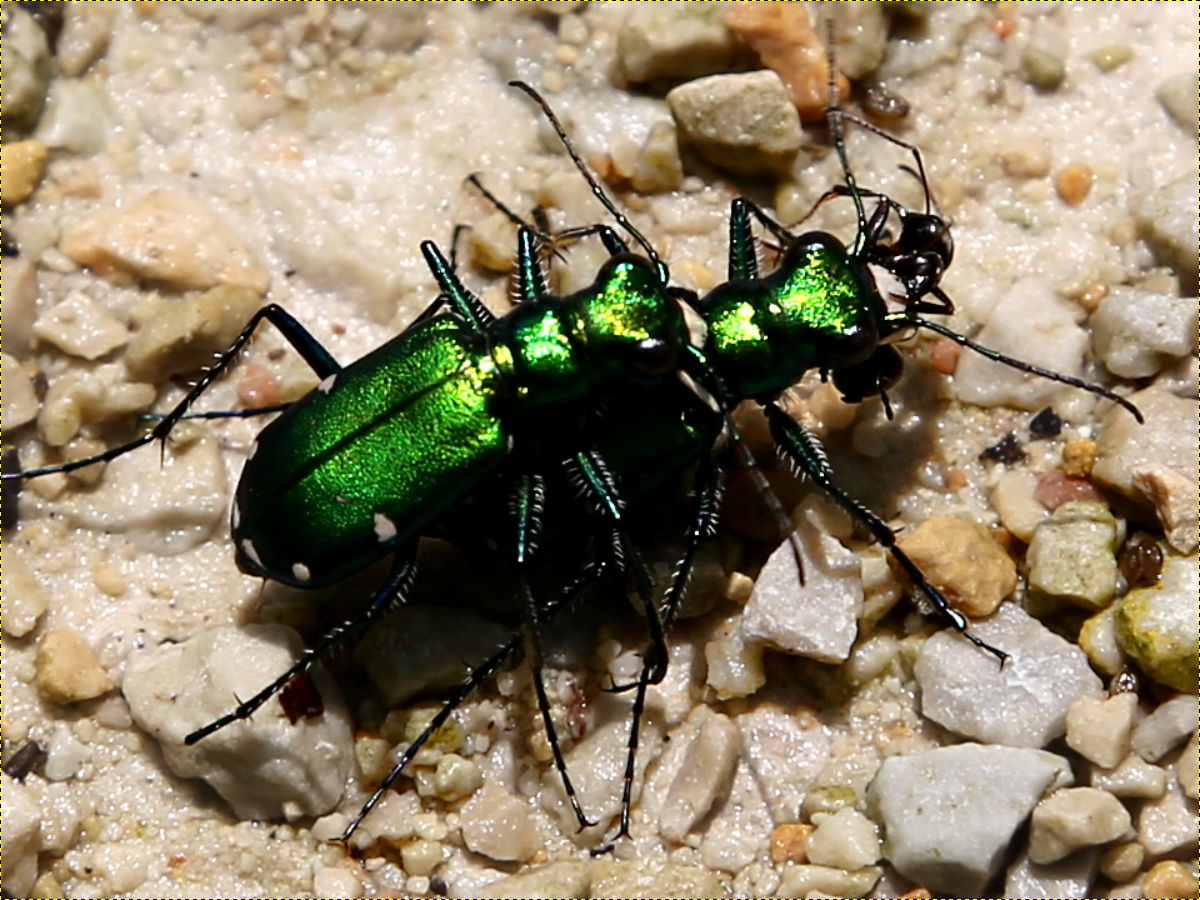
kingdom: Animalia
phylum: Arthropoda
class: Insecta
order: Coleoptera
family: Carabidae
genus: Cicindela
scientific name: Cicindela sexguttata
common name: Six-spotted tiger beetle
